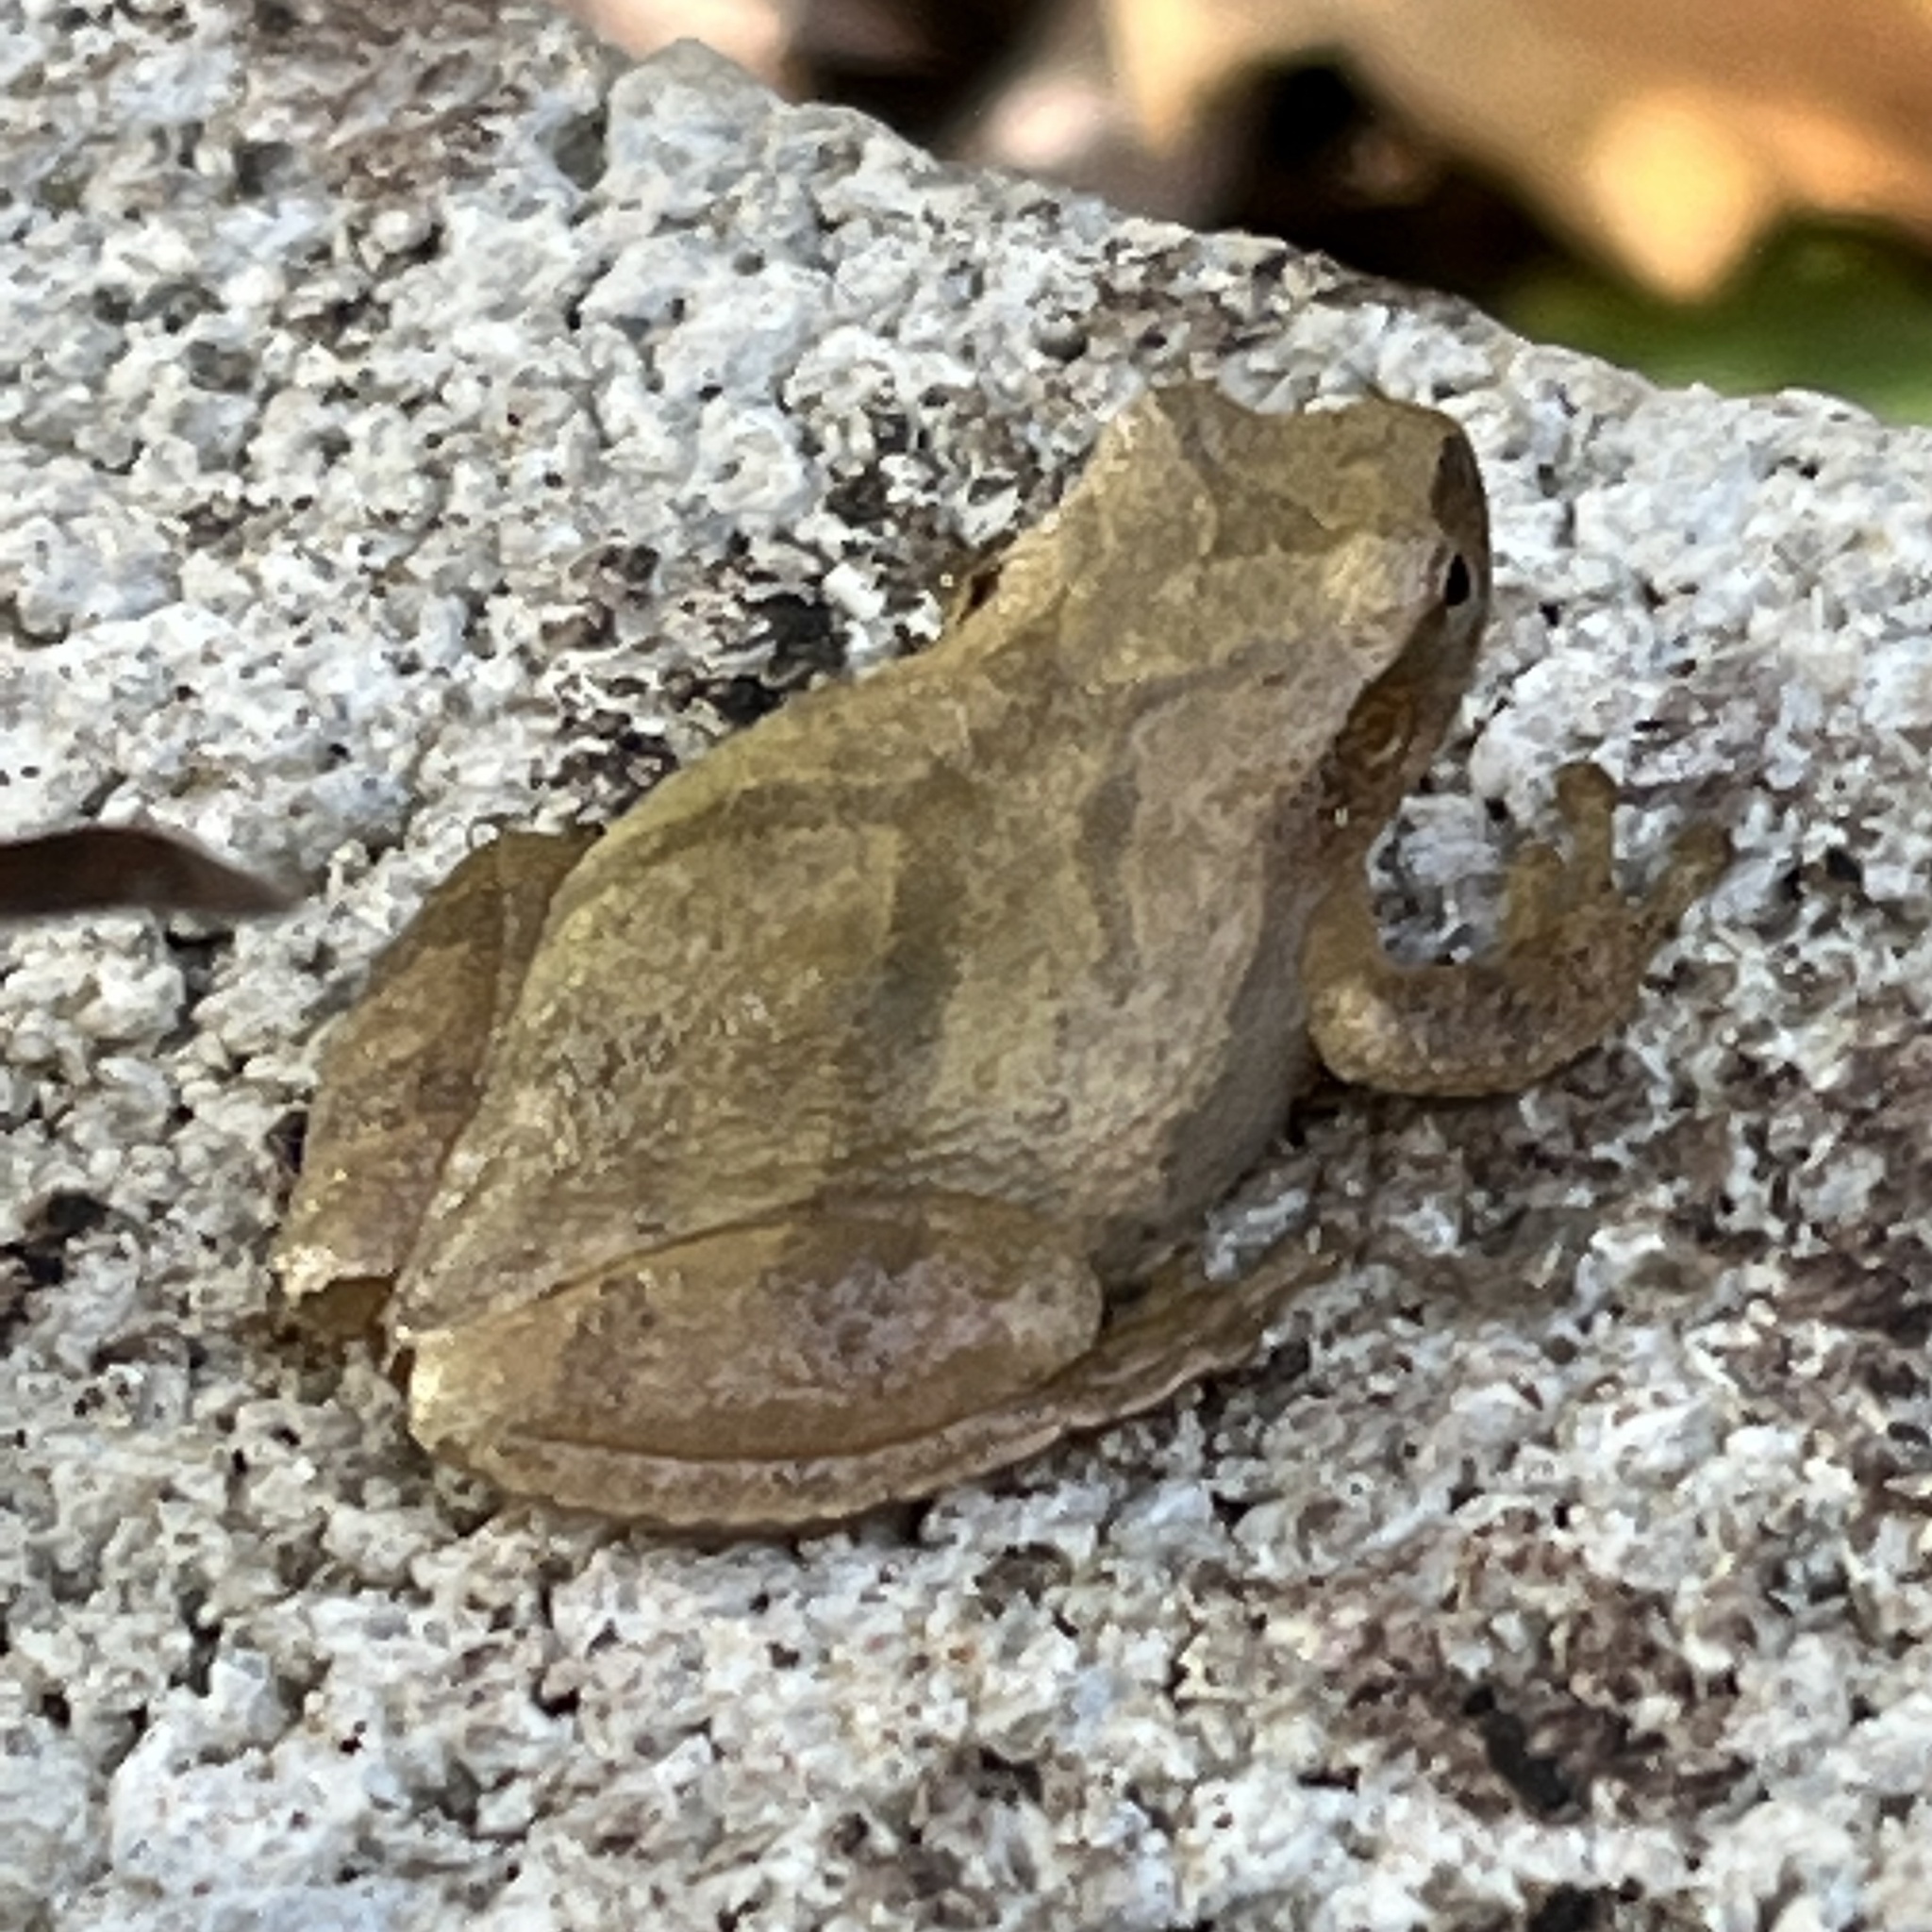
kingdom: Animalia
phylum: Chordata
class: Amphibia
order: Anura
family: Hylidae
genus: Pseudacris
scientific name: Pseudacris crucifer
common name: Spring peeper
